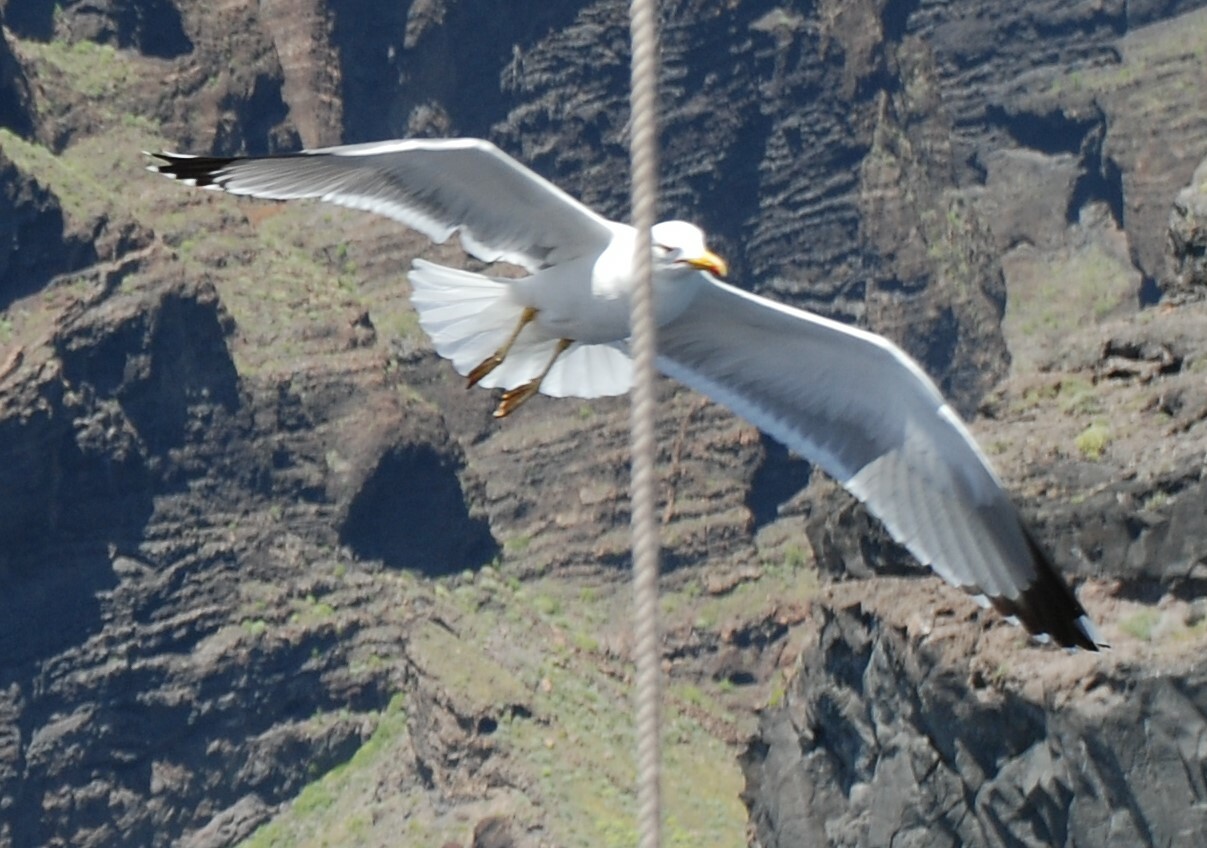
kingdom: Animalia
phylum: Chordata
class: Aves
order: Charadriiformes
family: Laridae
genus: Larus
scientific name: Larus michahellis
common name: Yellow-legged gull
